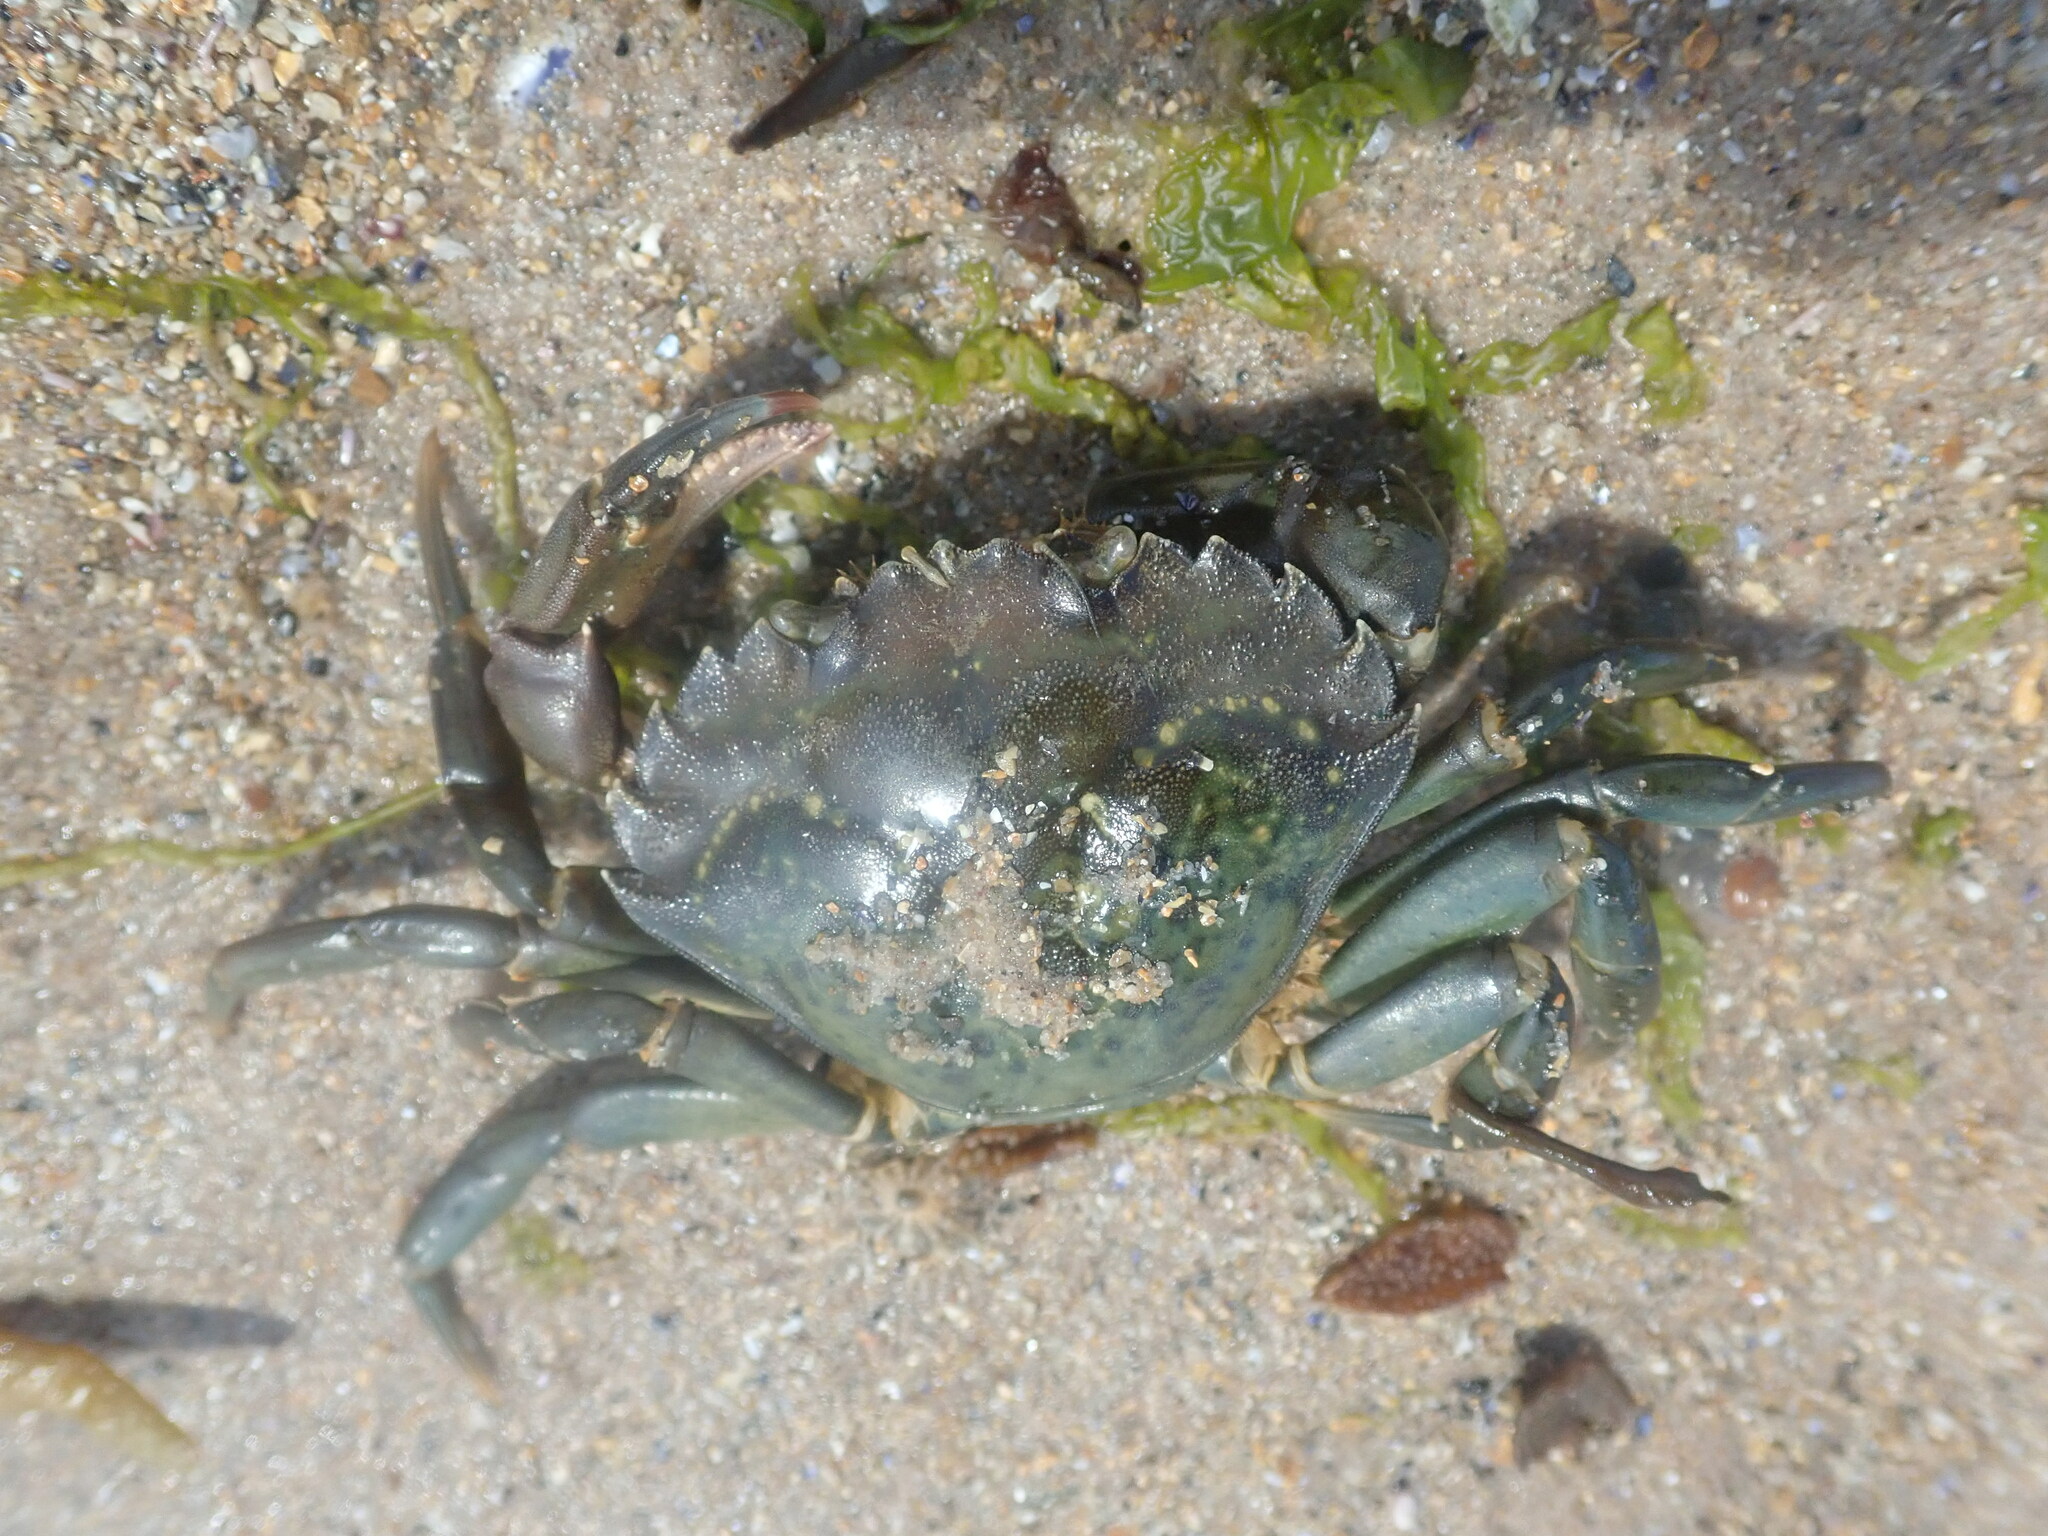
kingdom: Animalia
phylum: Arthropoda
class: Malacostraca
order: Decapoda
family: Carcinidae
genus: Carcinus
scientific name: Carcinus maenas
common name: European green crab
